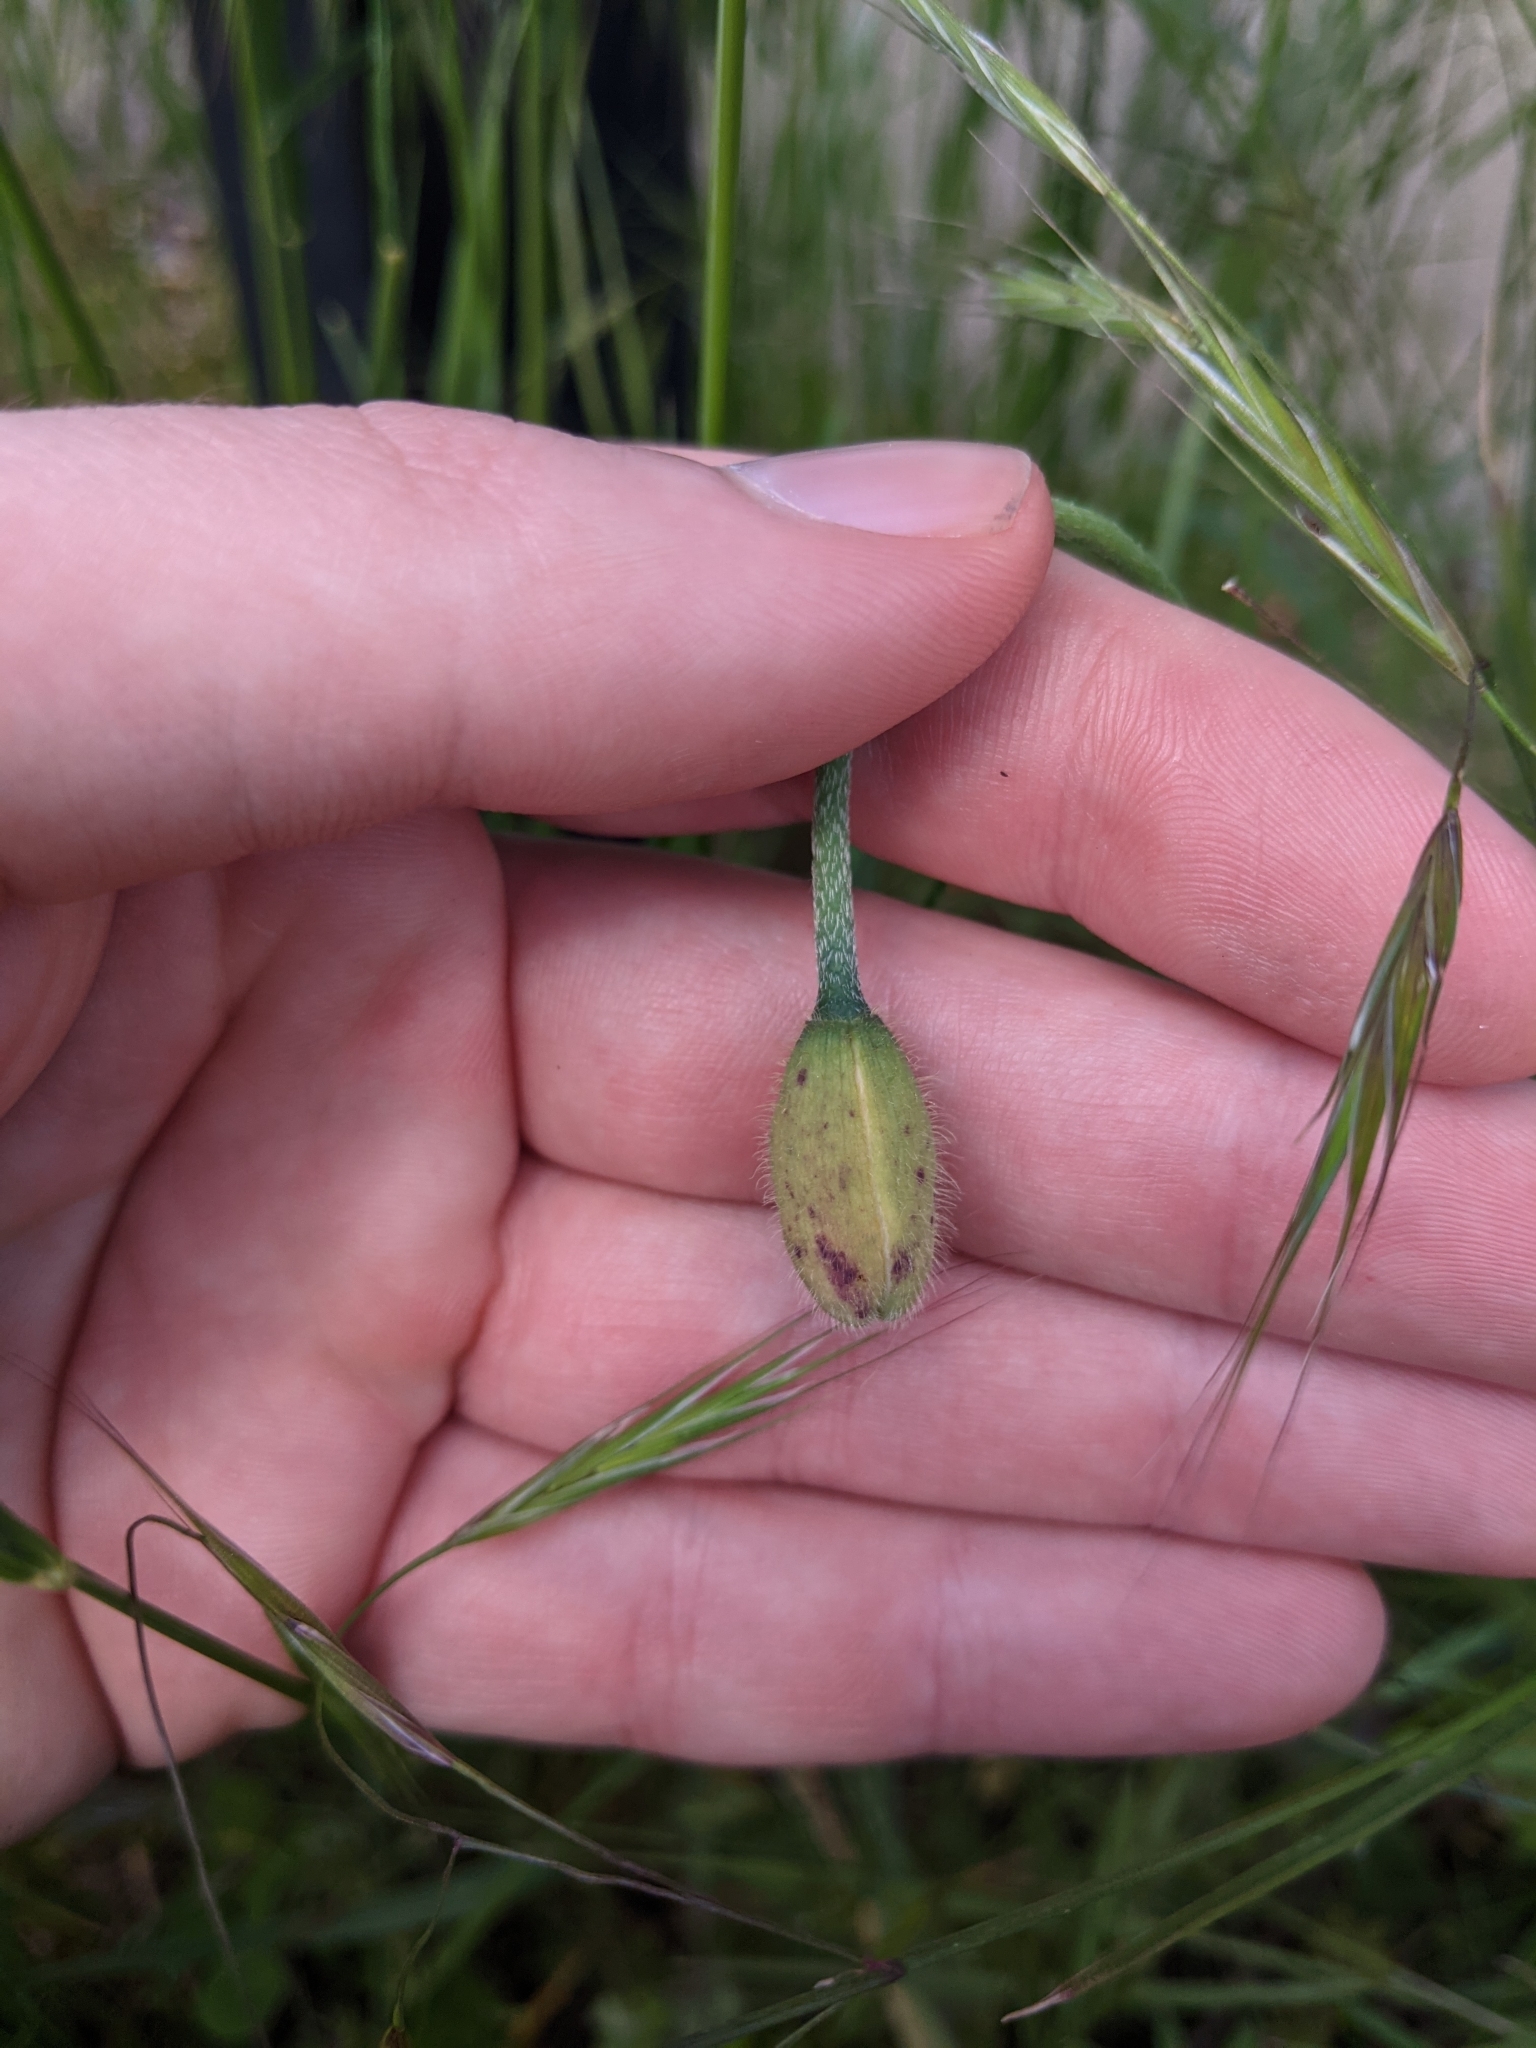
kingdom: Plantae
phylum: Tracheophyta
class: Magnoliopsida
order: Ranunculales
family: Papaveraceae
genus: Papaver
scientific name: Papaver atlanticum
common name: Atlas poppy
